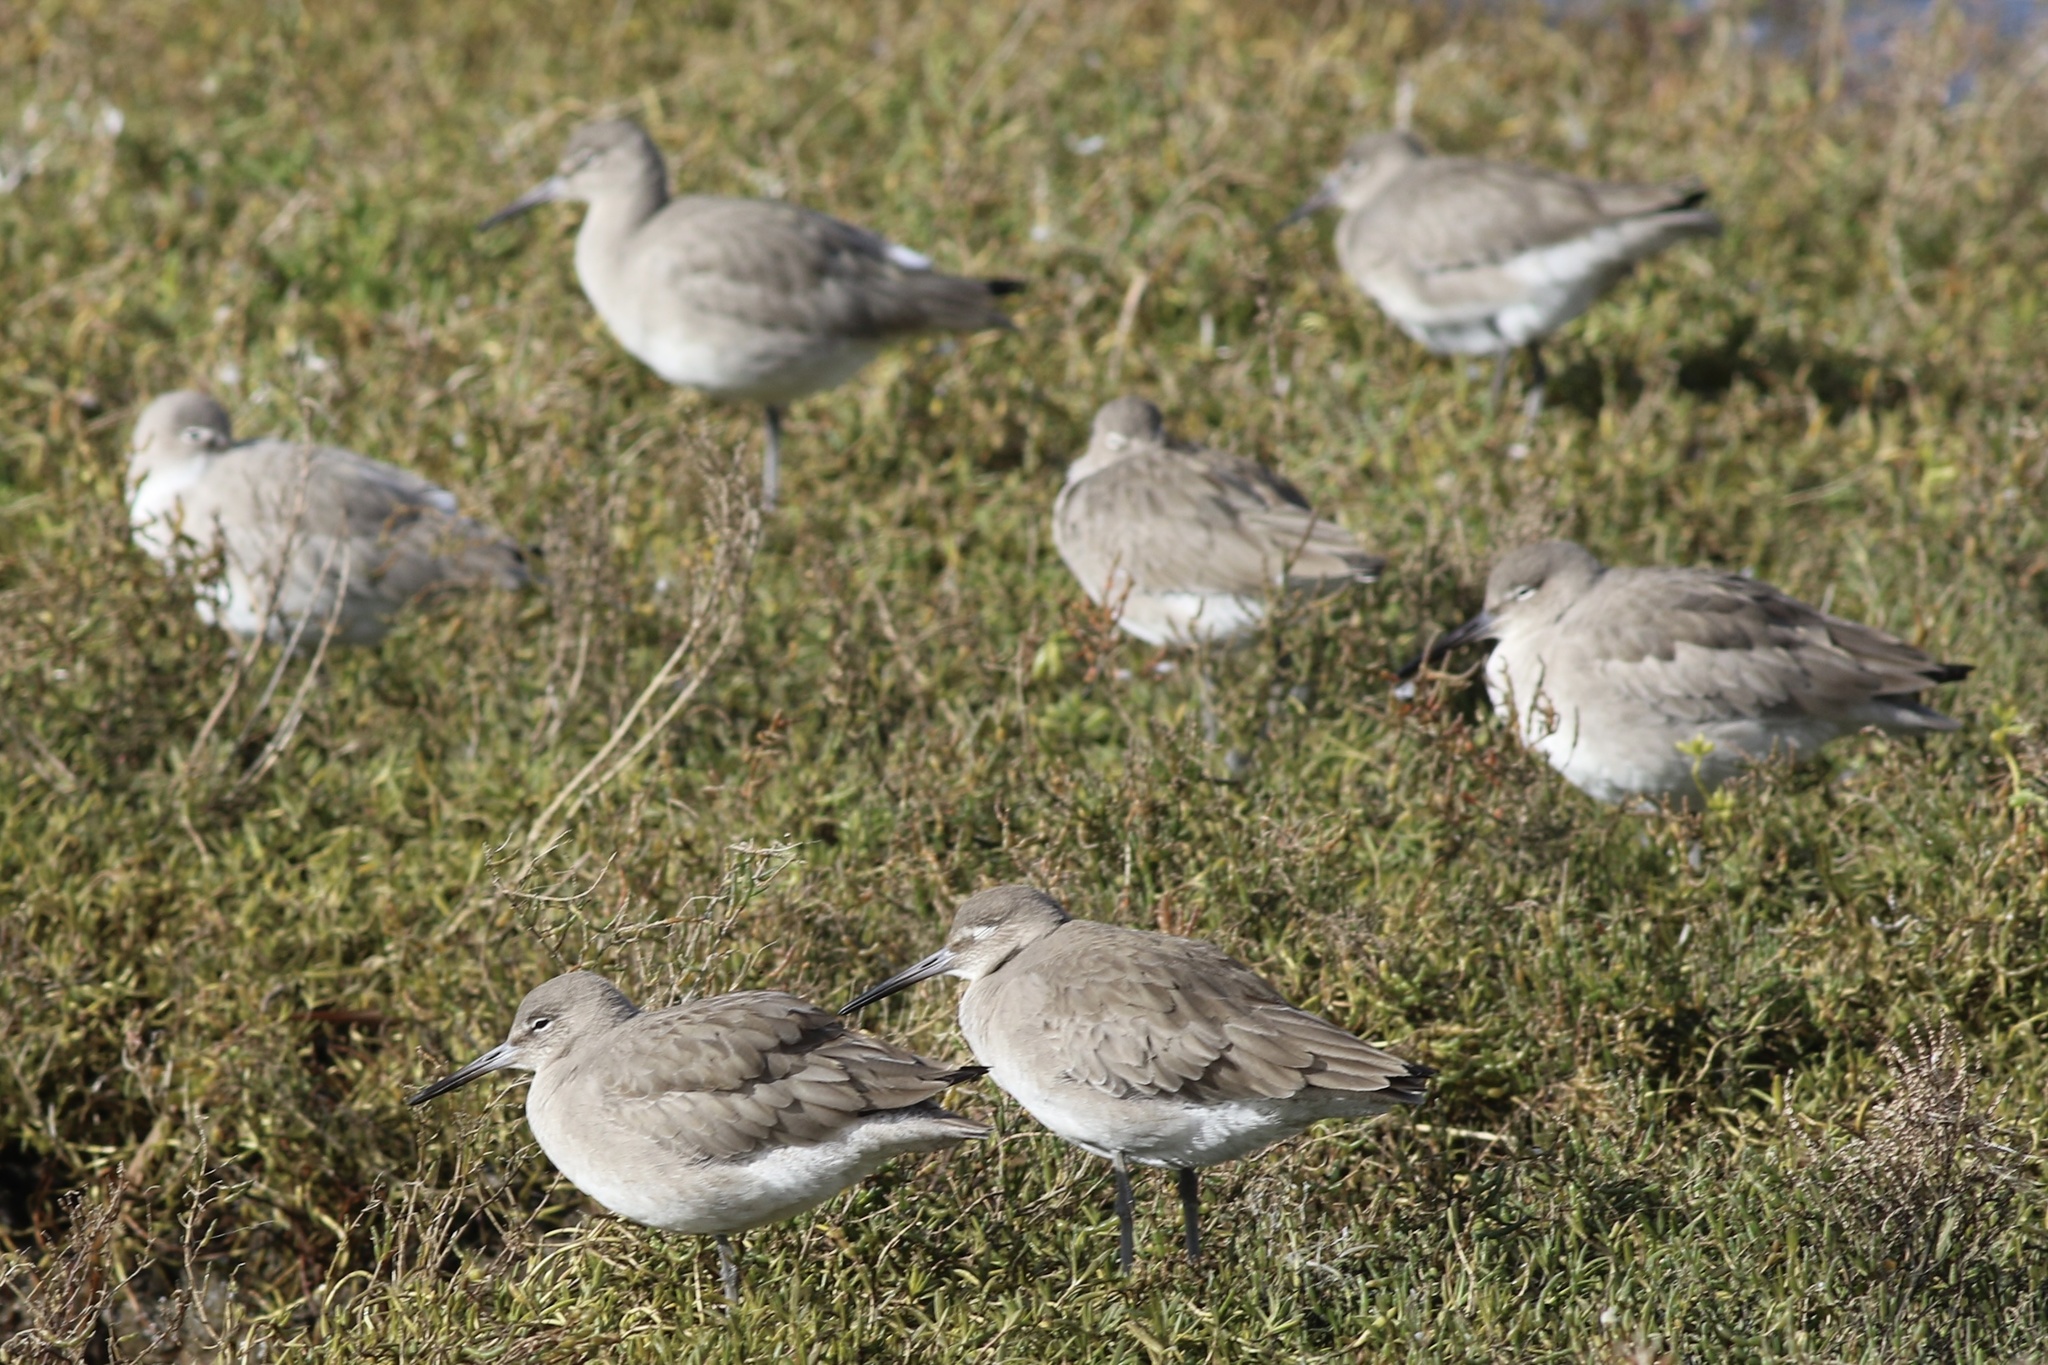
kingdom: Animalia
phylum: Chordata
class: Aves
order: Charadriiformes
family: Scolopacidae
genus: Tringa
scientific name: Tringa semipalmata
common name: Willet
